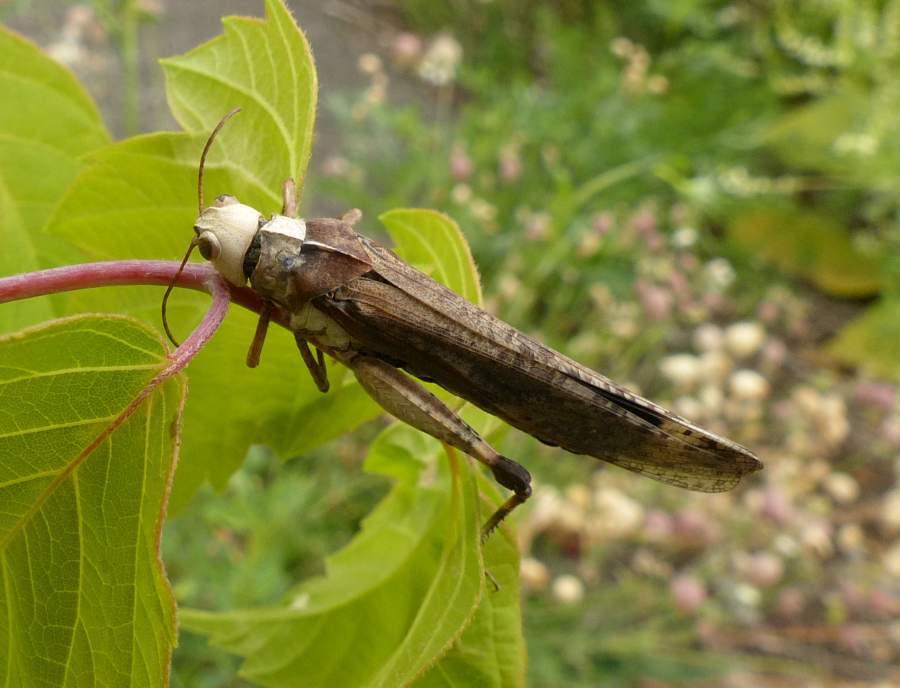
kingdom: Animalia
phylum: Arthropoda
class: Insecta
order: Orthoptera
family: Acrididae
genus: Dissosteira
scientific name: Dissosteira carolina
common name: Carolina grasshopper
